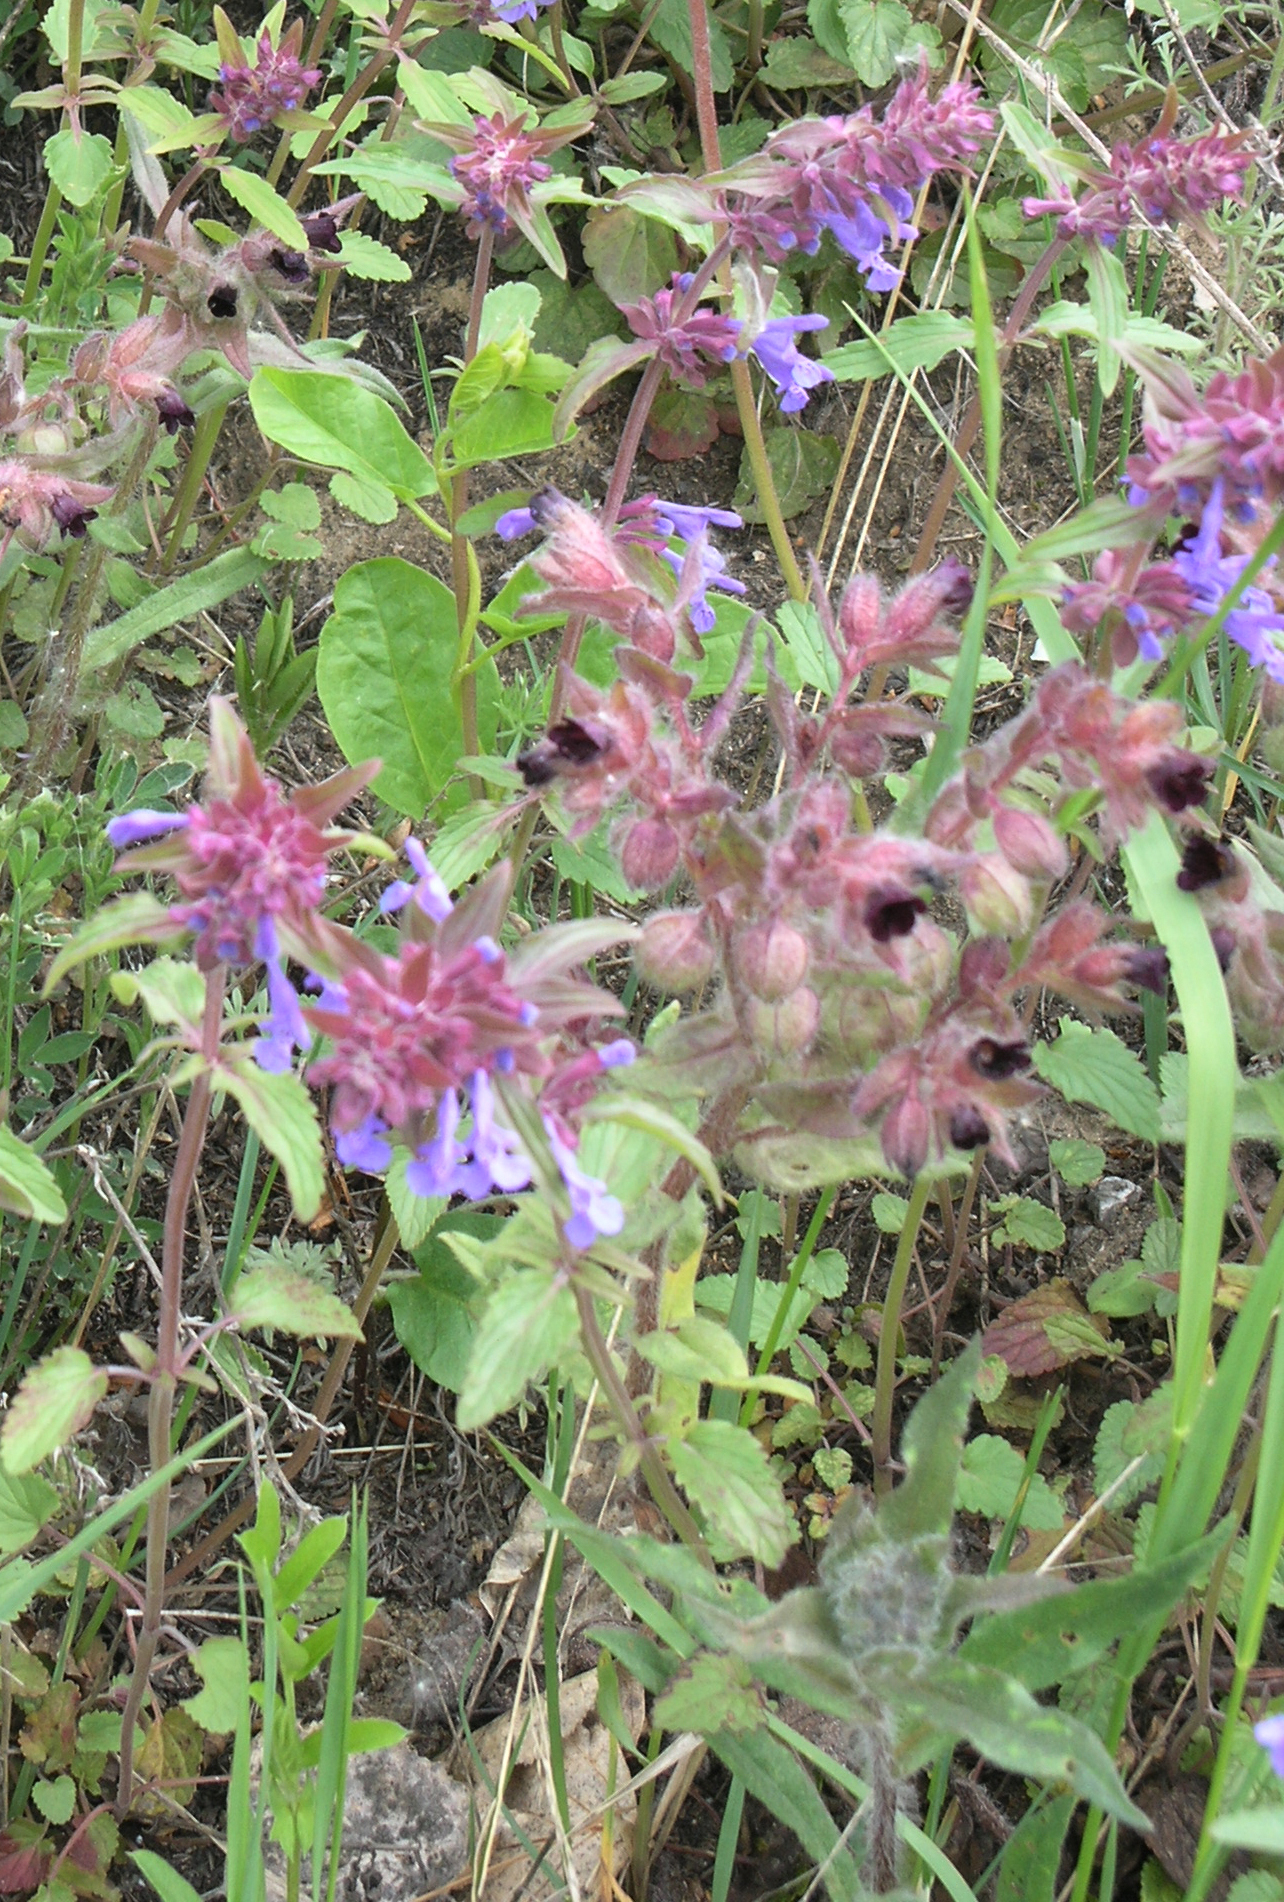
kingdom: Plantae
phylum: Tracheophyta
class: Magnoliopsida
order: Boraginales
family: Boraginaceae
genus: Nonea
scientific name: Nonea pulla
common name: Brown nonea
